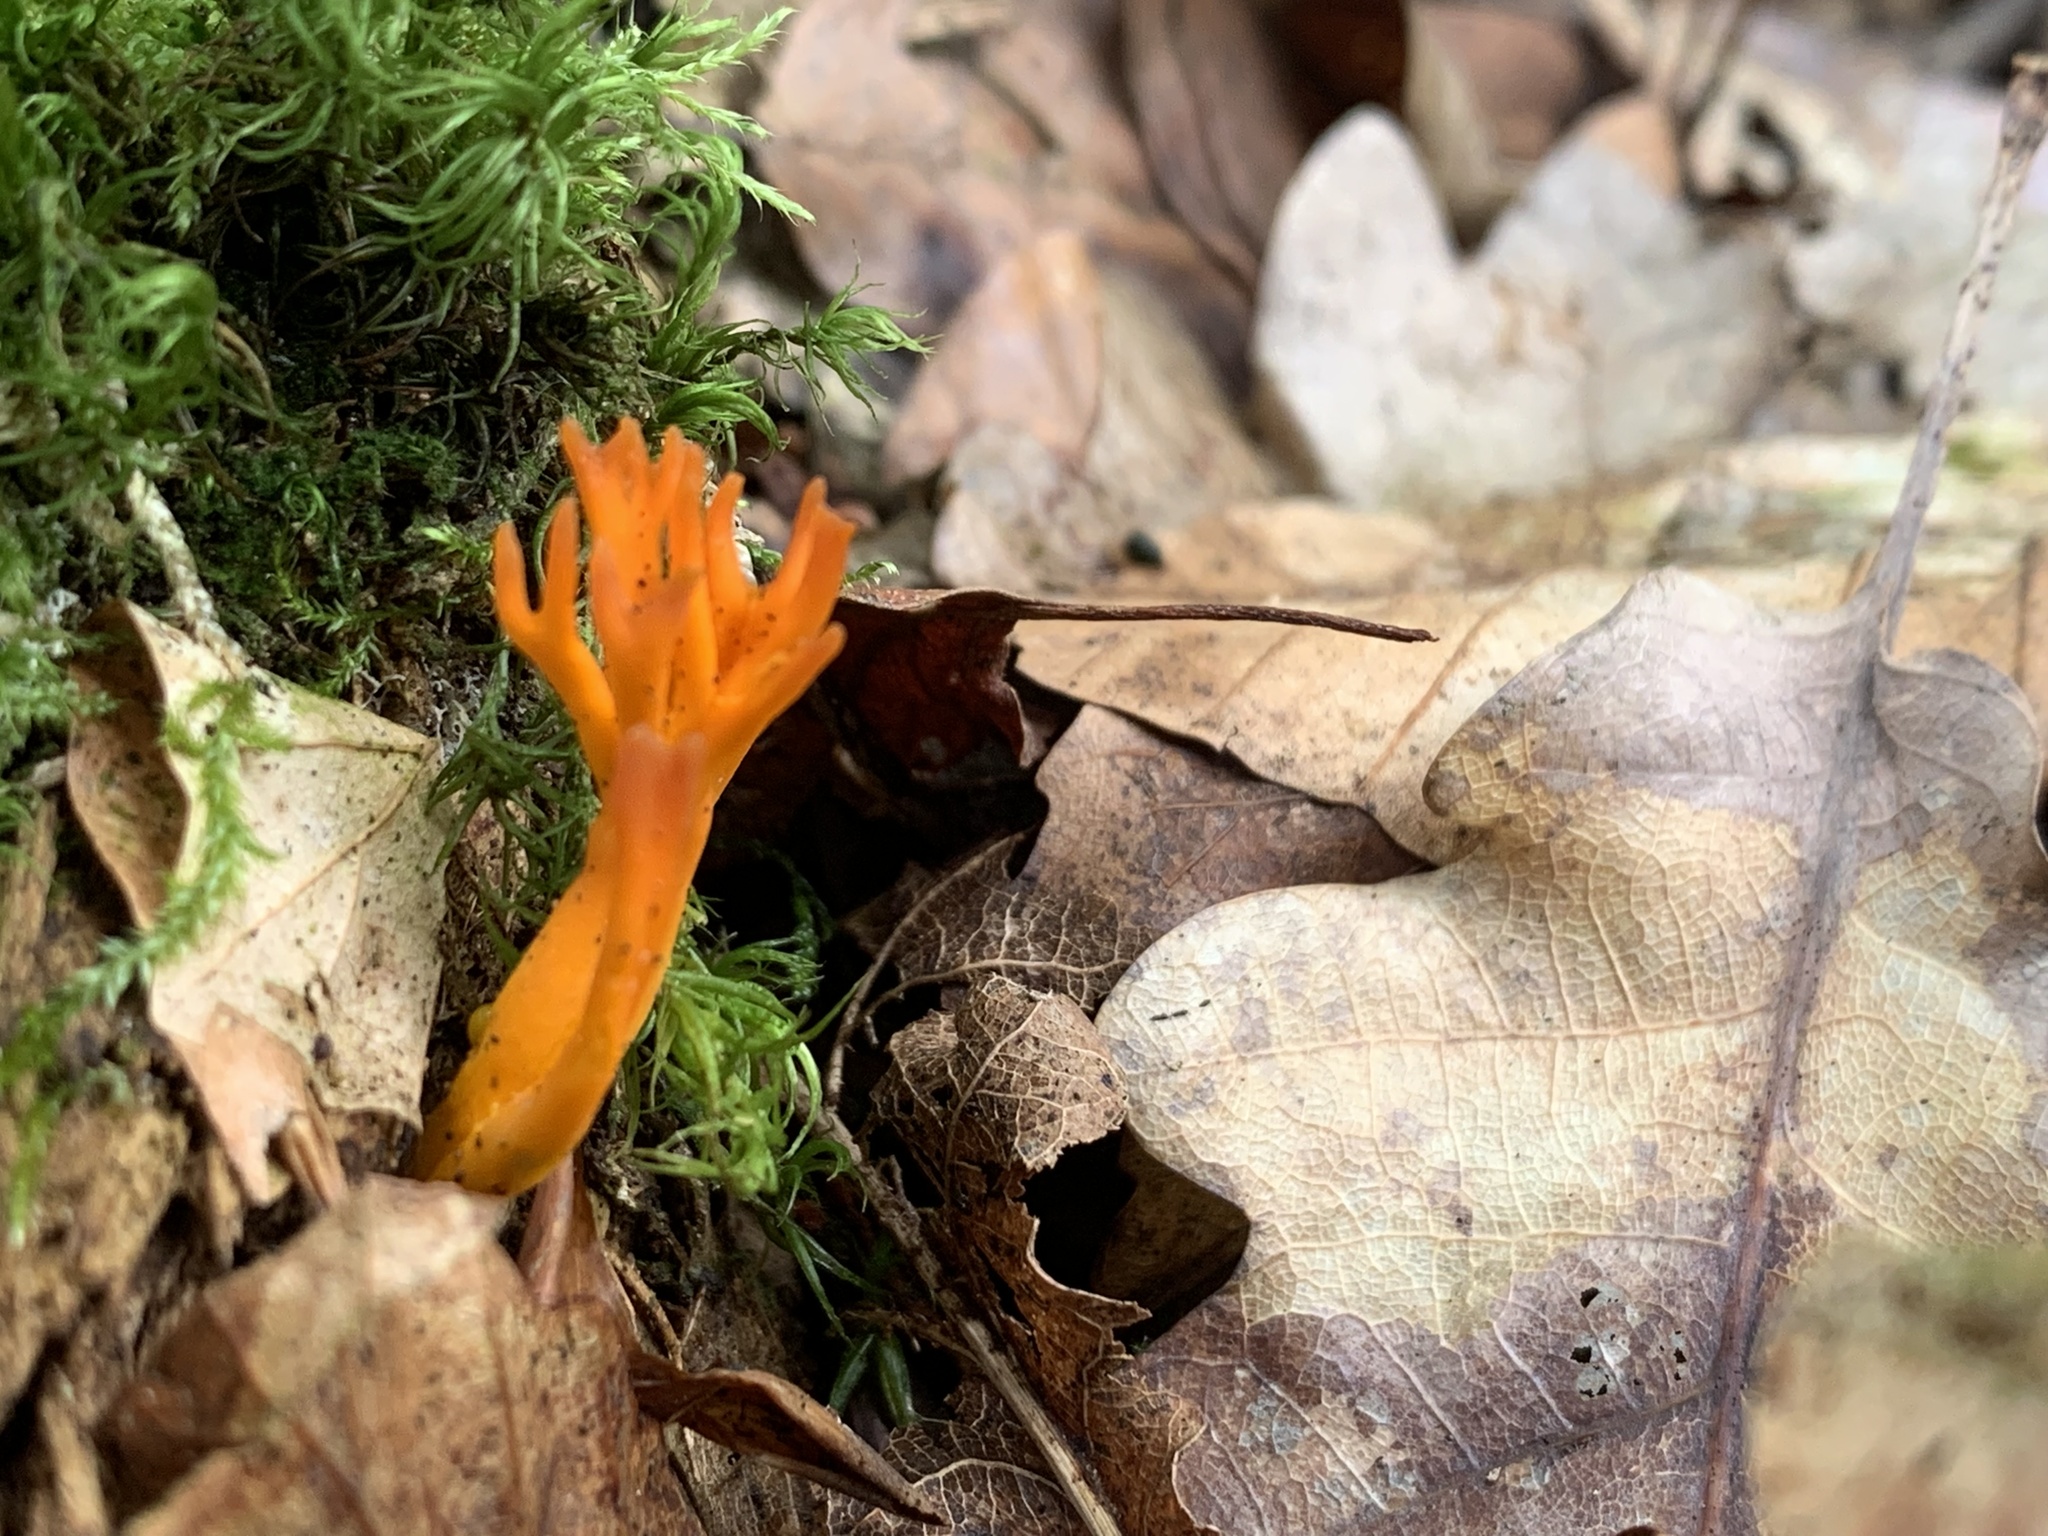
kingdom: Fungi
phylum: Basidiomycota
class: Dacrymycetes
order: Dacrymycetales
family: Dacrymycetaceae
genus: Calocera
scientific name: Calocera viscosa
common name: Yellow stagshorn
